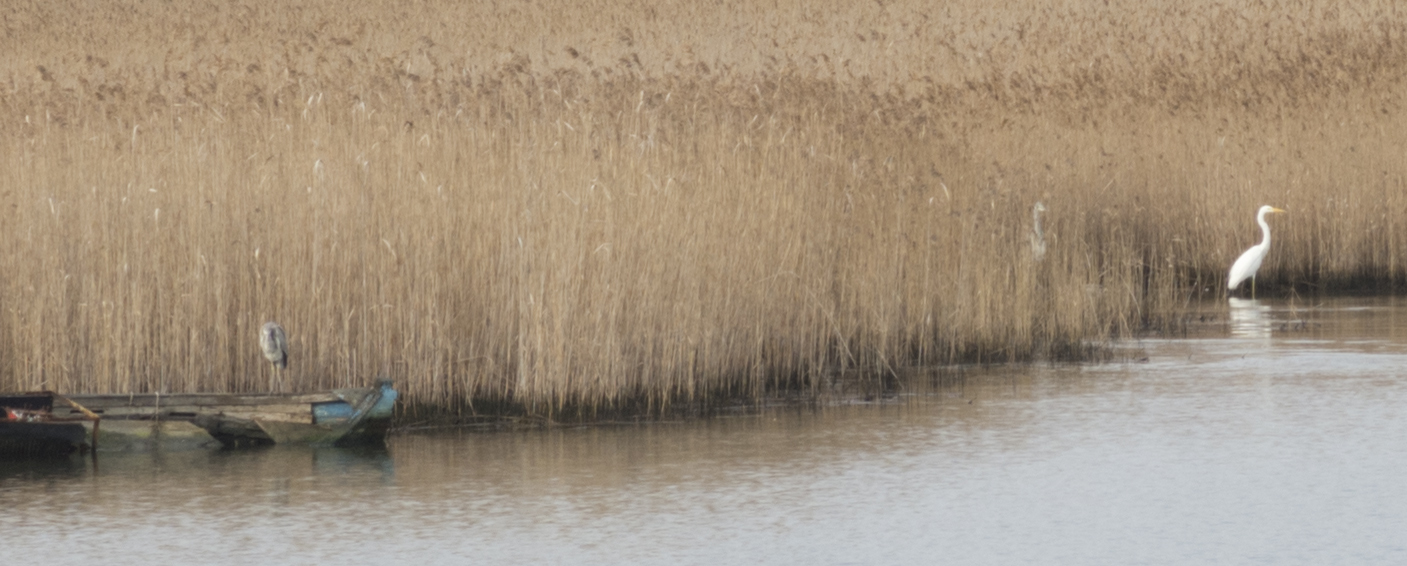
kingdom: Animalia
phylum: Chordata
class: Aves
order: Pelecaniformes
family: Ardeidae
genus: Ardea
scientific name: Ardea alba
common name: Great egret
